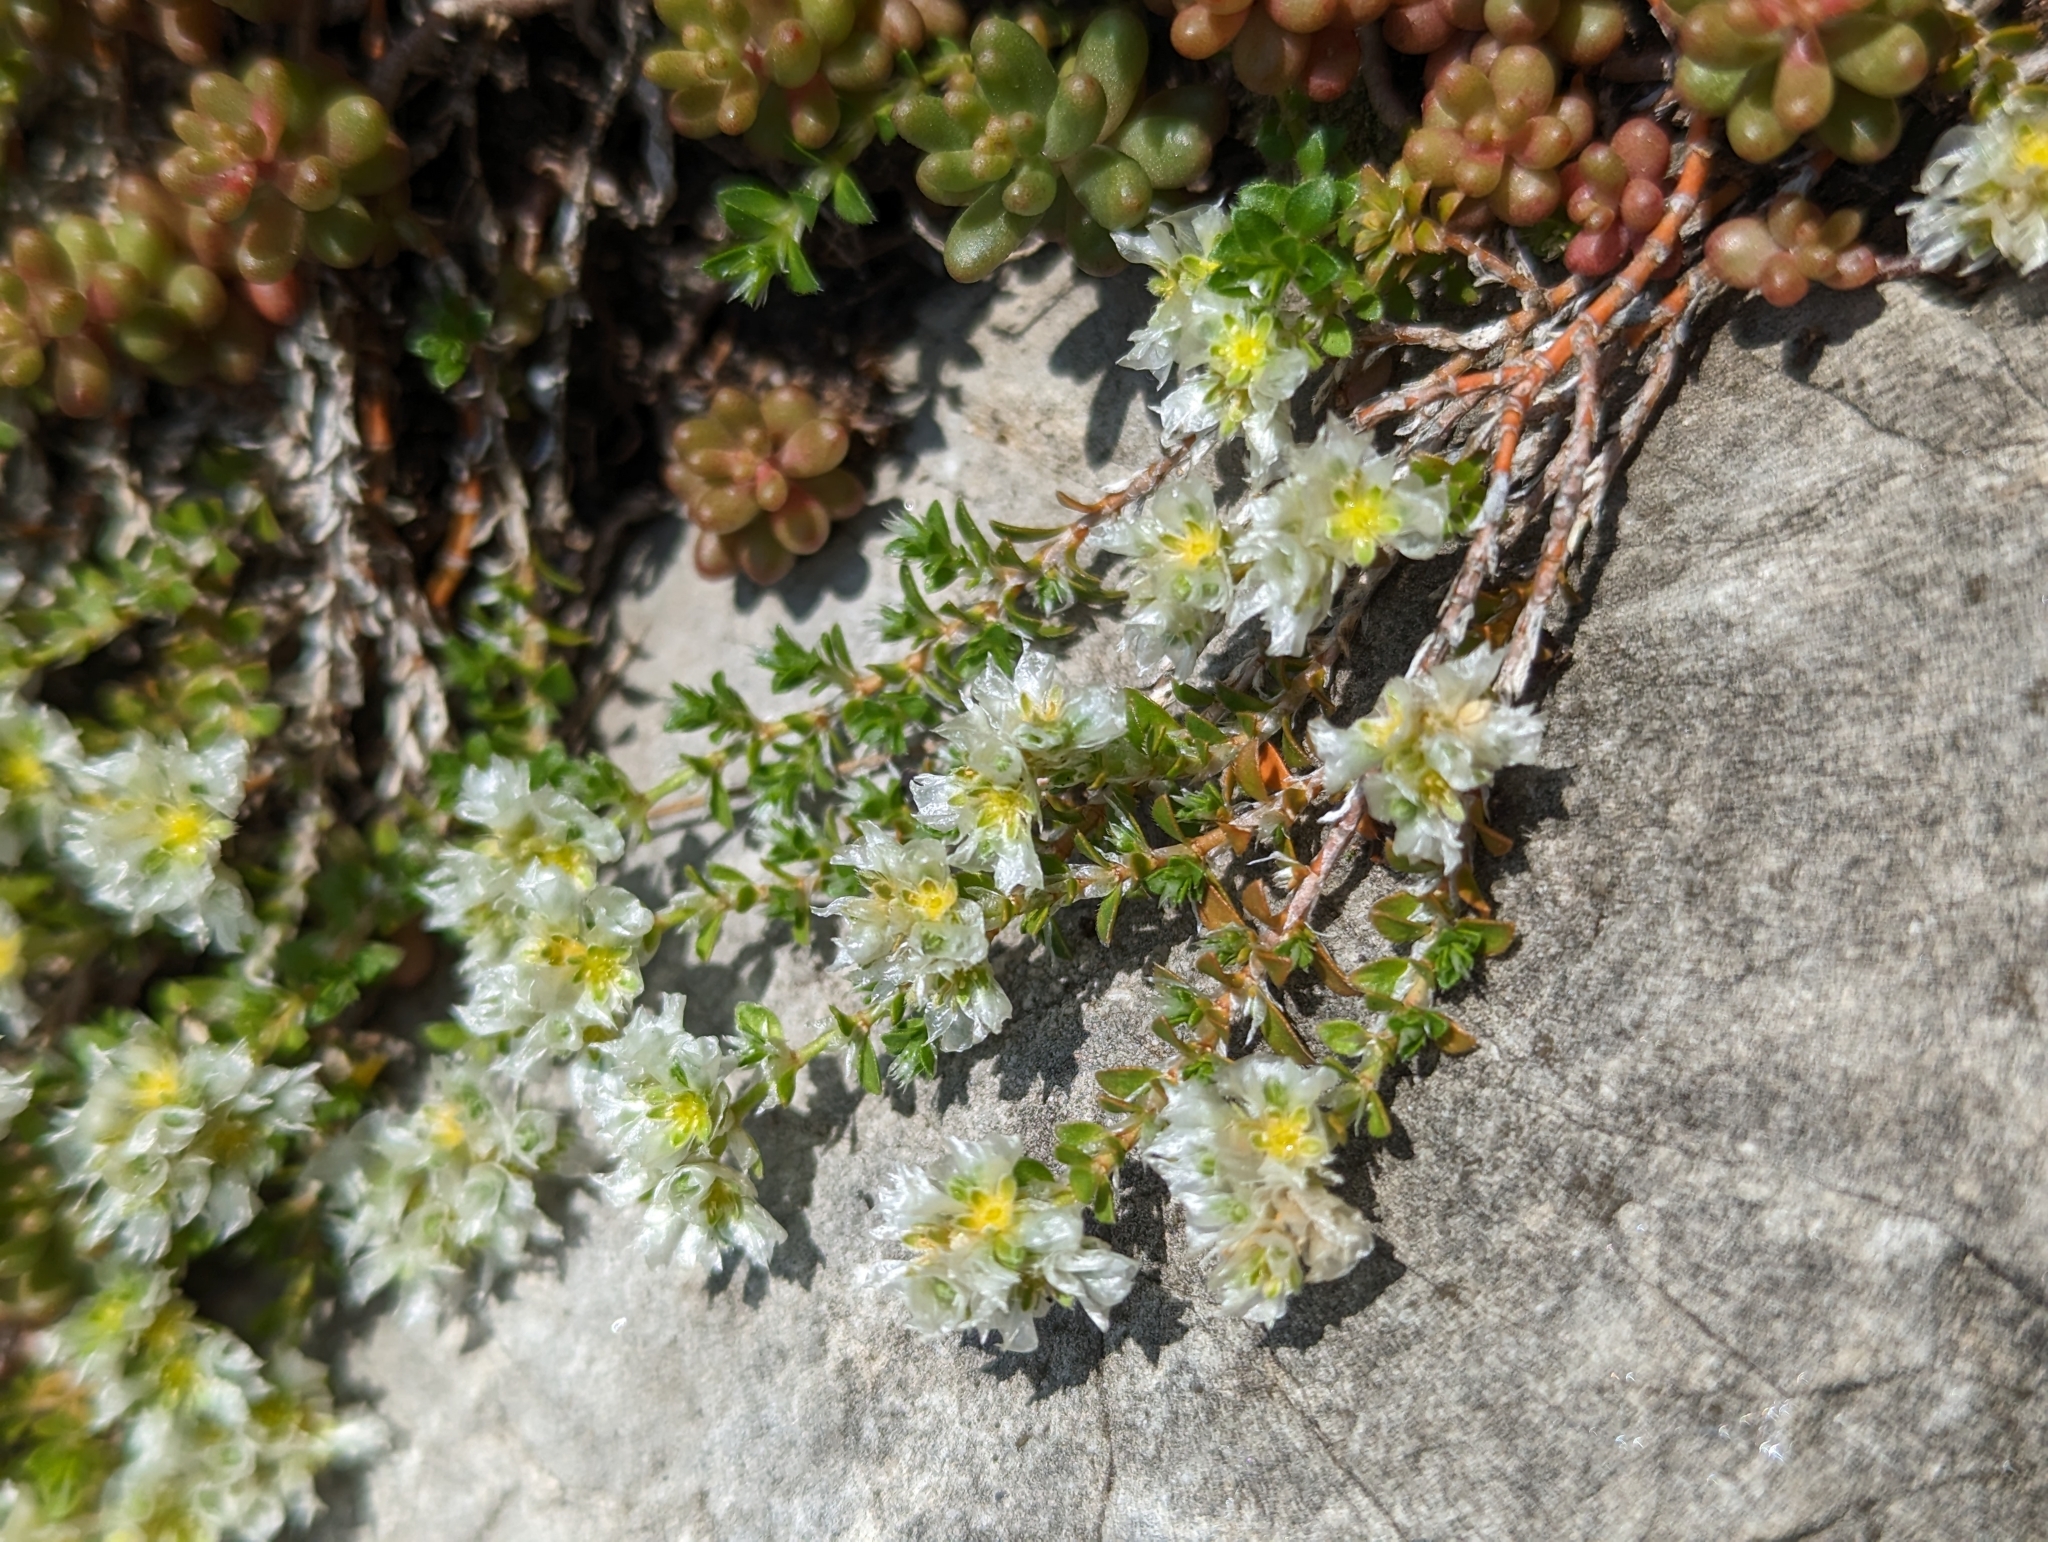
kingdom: Plantae
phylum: Tracheophyta
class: Magnoliopsida
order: Saxifragales
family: Crassulaceae
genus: Sedum
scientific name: Sedum album
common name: White stonecrop
